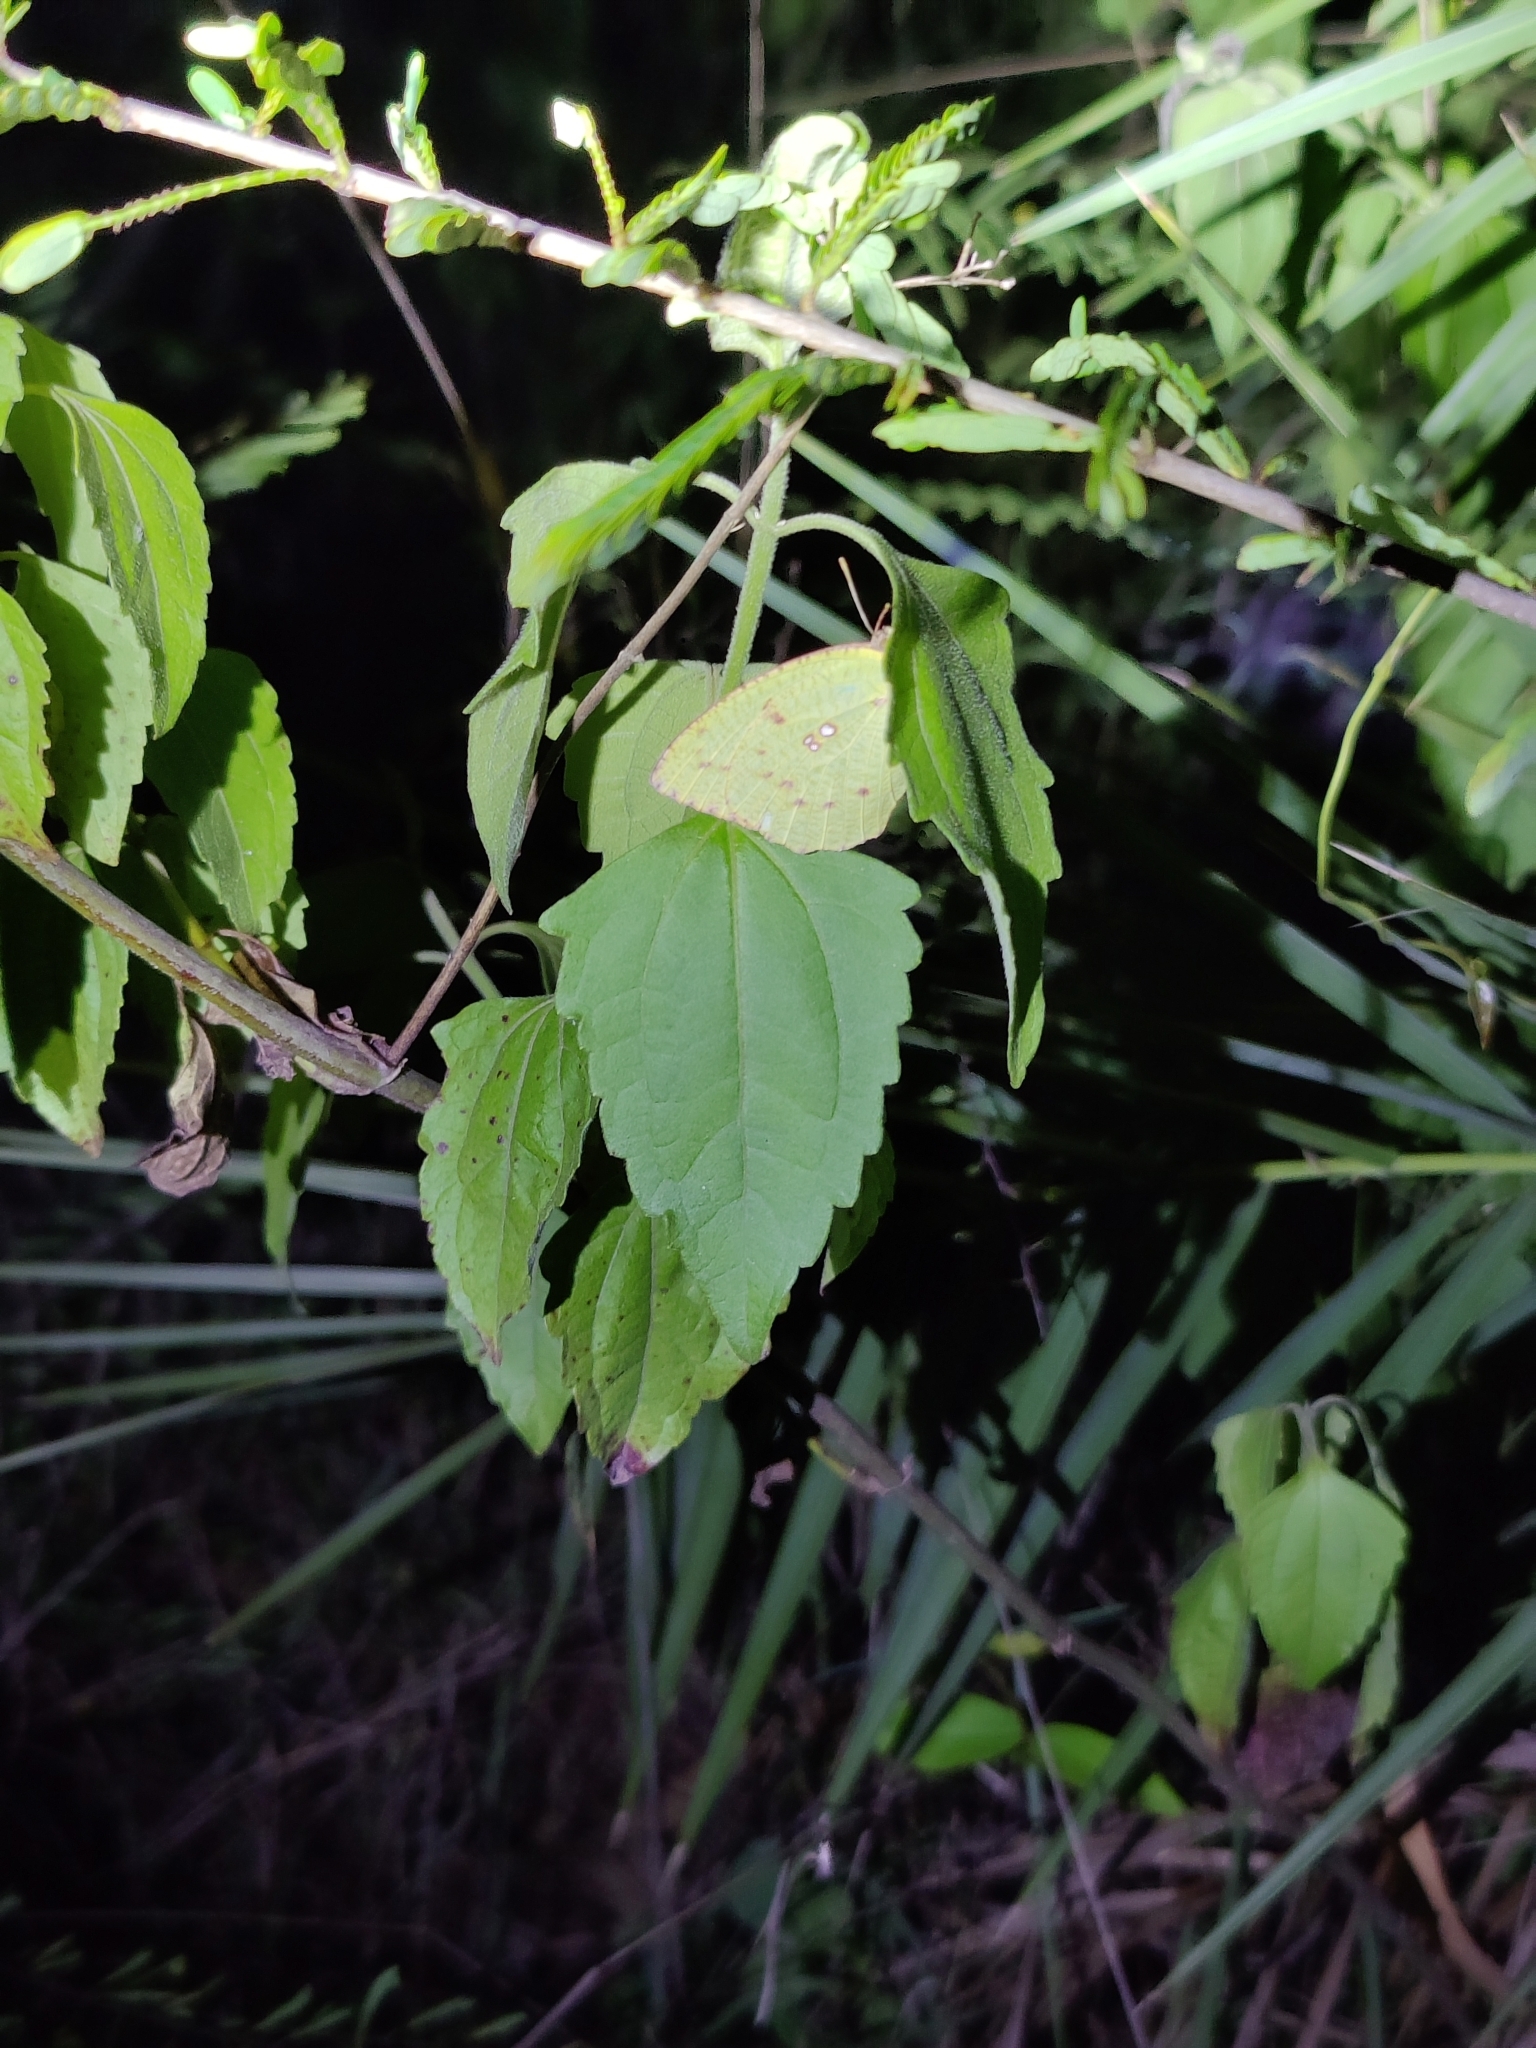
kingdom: Animalia
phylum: Arthropoda
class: Insecta
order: Lepidoptera
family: Pieridae
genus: Catopsilia
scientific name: Catopsilia pyranthe
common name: Mottled emigrant
